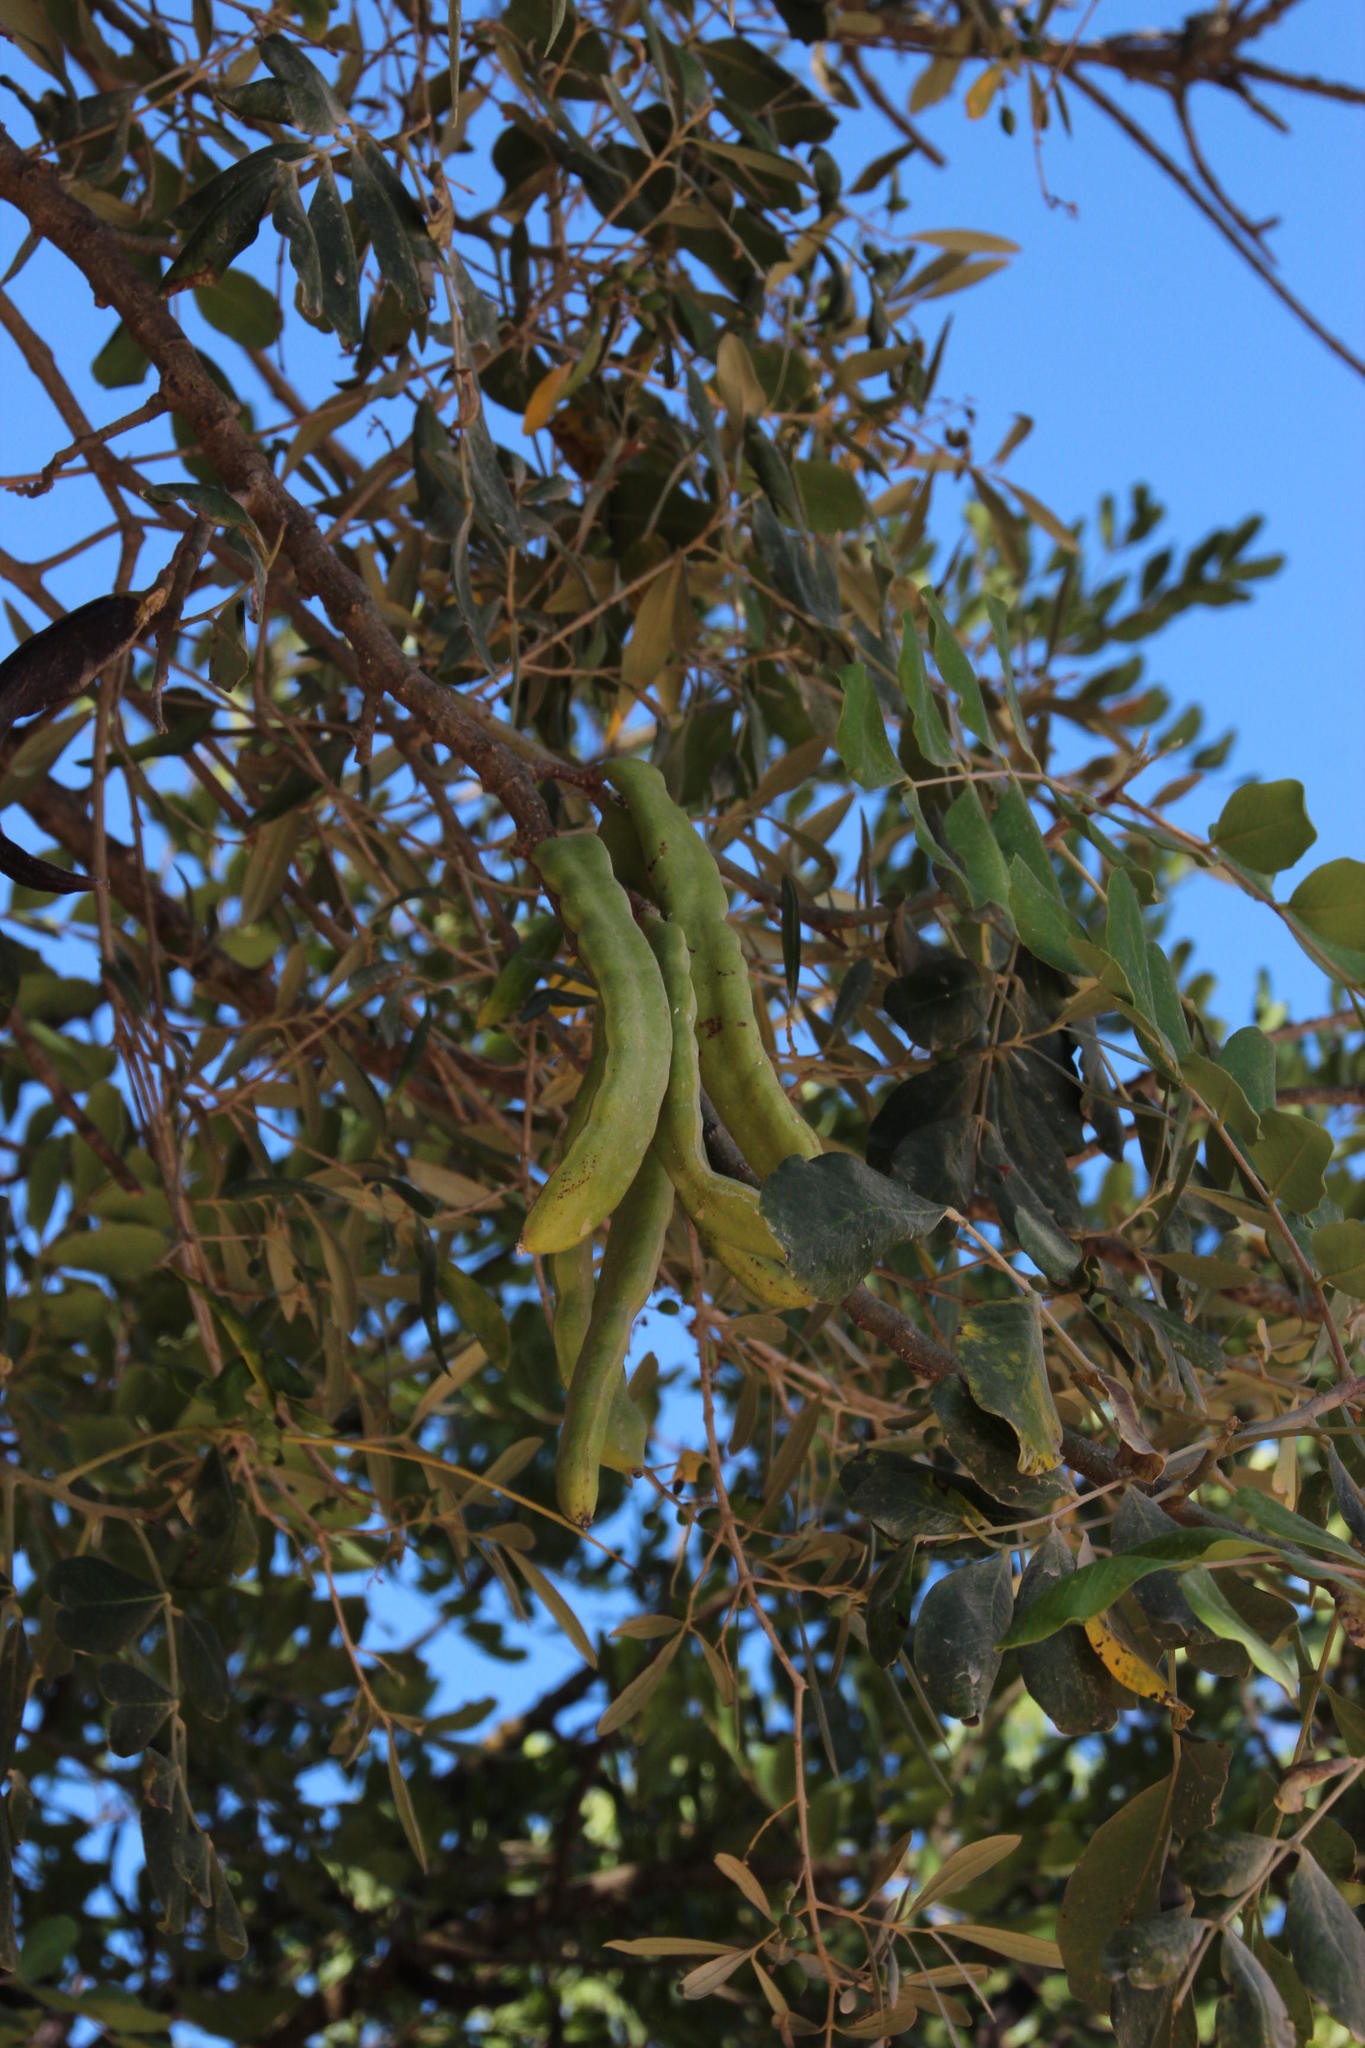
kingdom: Plantae
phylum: Tracheophyta
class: Magnoliopsida
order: Fabales
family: Fabaceae
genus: Ceratonia
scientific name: Ceratonia siliqua
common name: Carob
